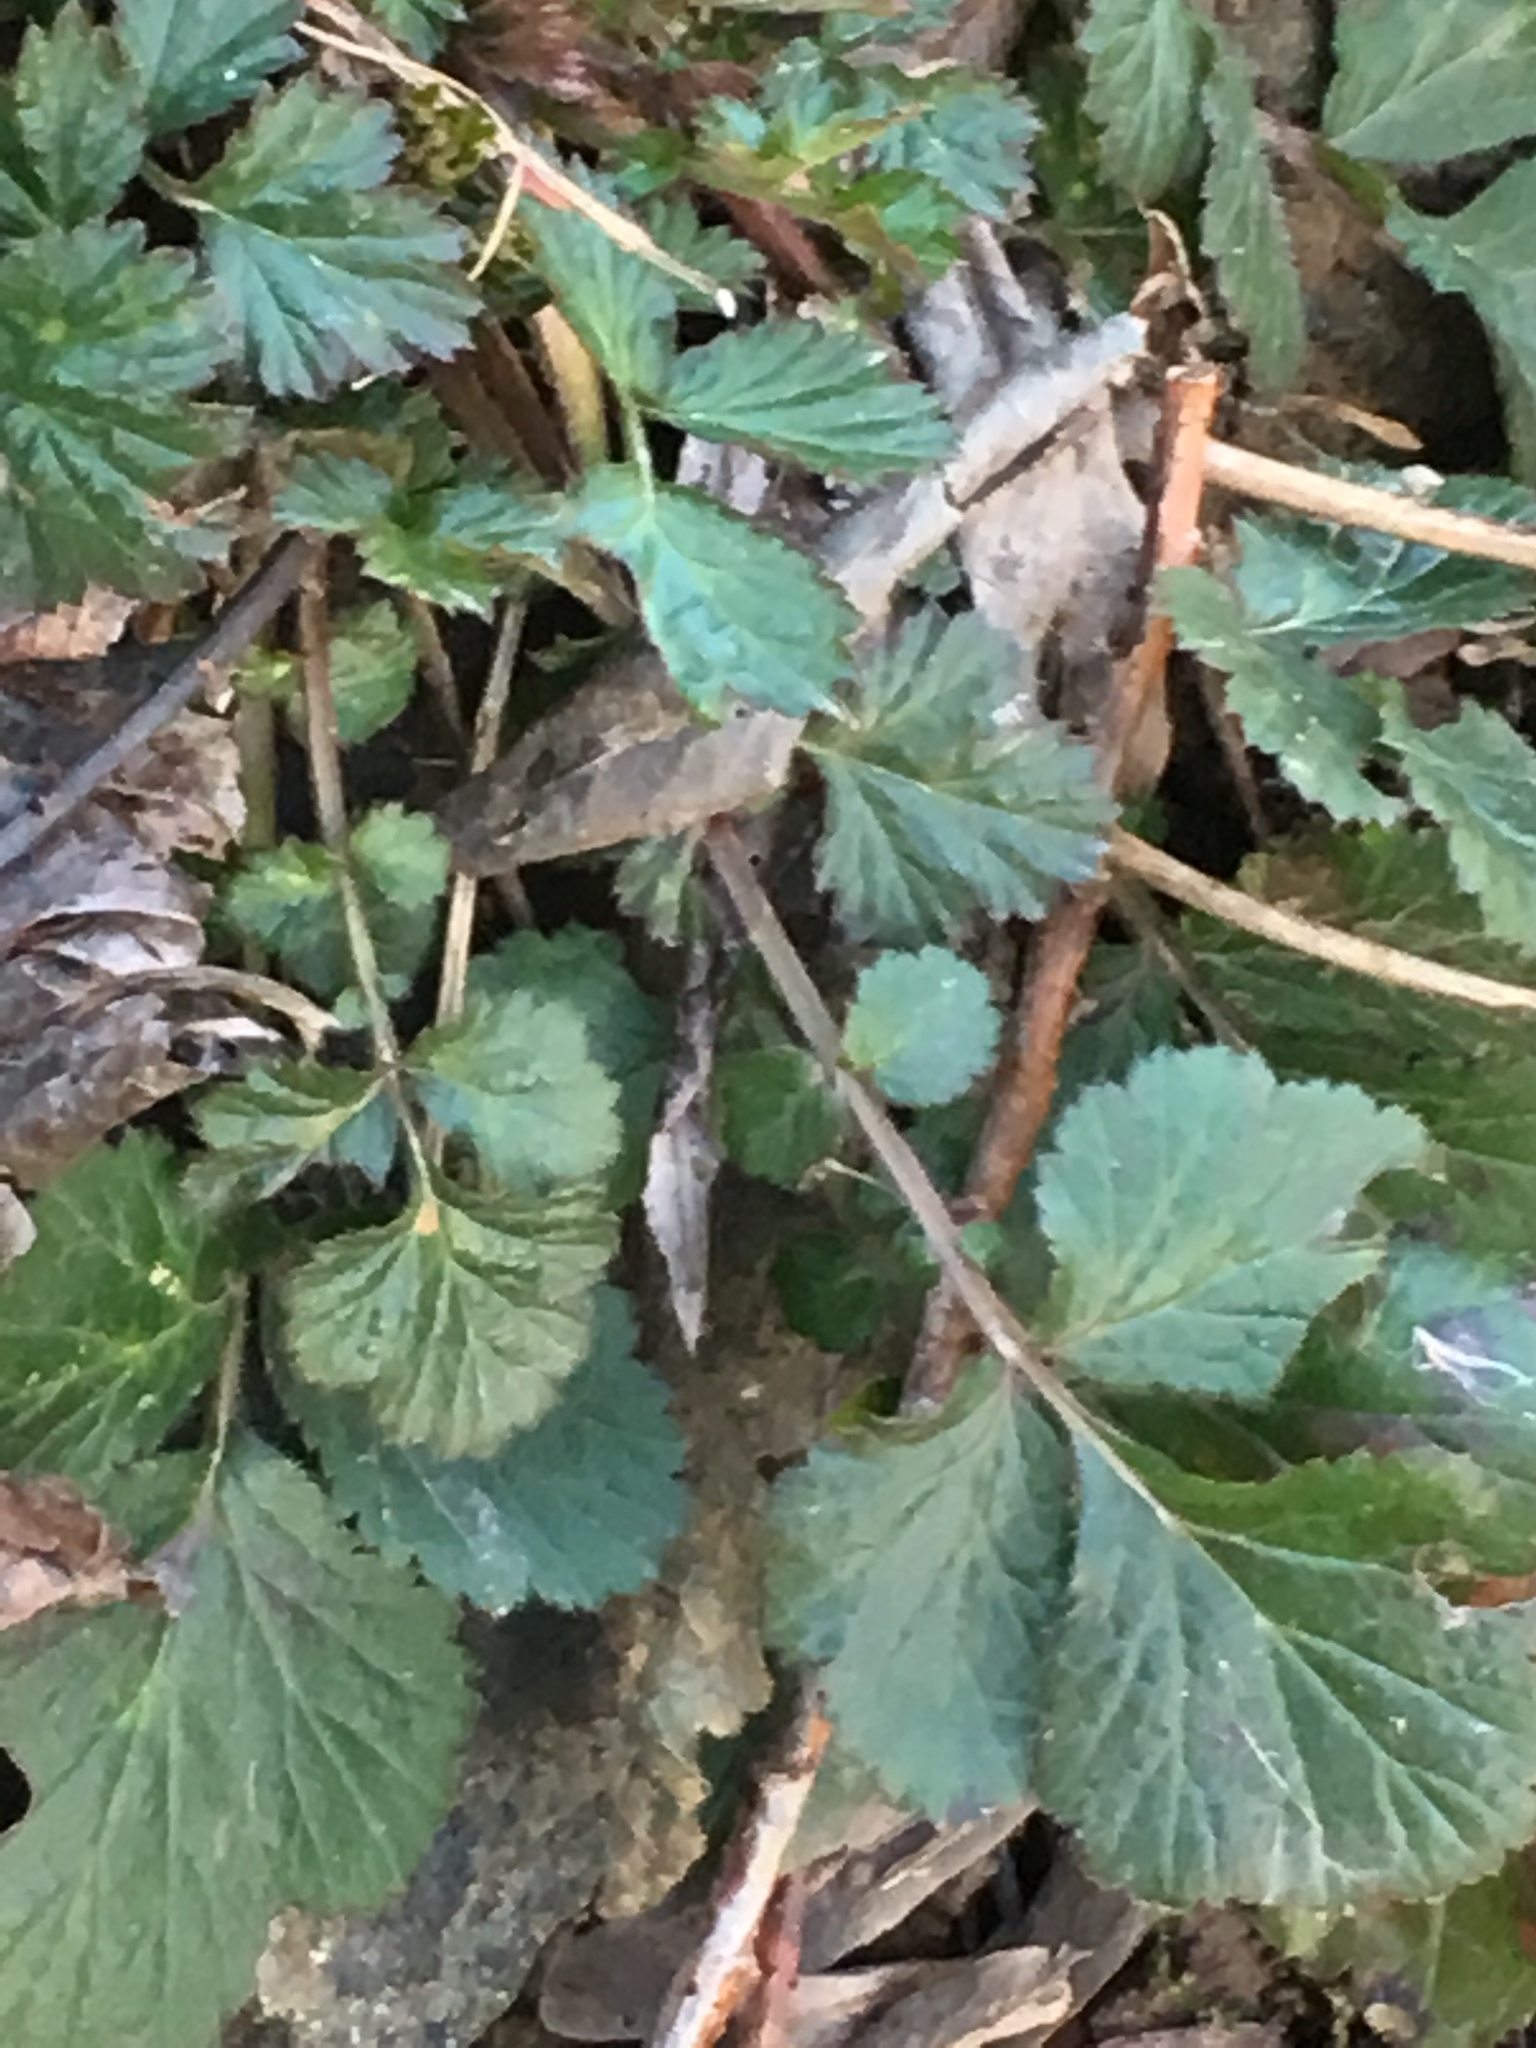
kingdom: Plantae
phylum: Tracheophyta
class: Magnoliopsida
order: Rosales
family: Rosaceae
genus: Geum
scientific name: Geum urbanum
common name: Wood avens
